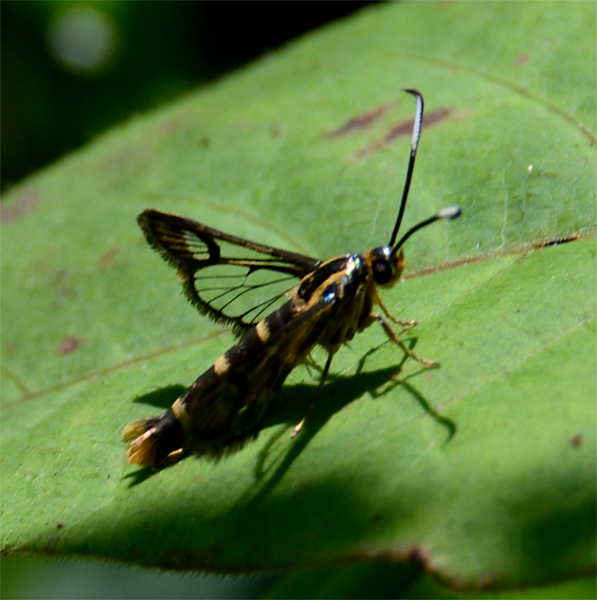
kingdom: Animalia
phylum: Arthropoda
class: Insecta
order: Lepidoptera
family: Sesiidae
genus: Carmenta
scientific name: Carmenta ithacae
